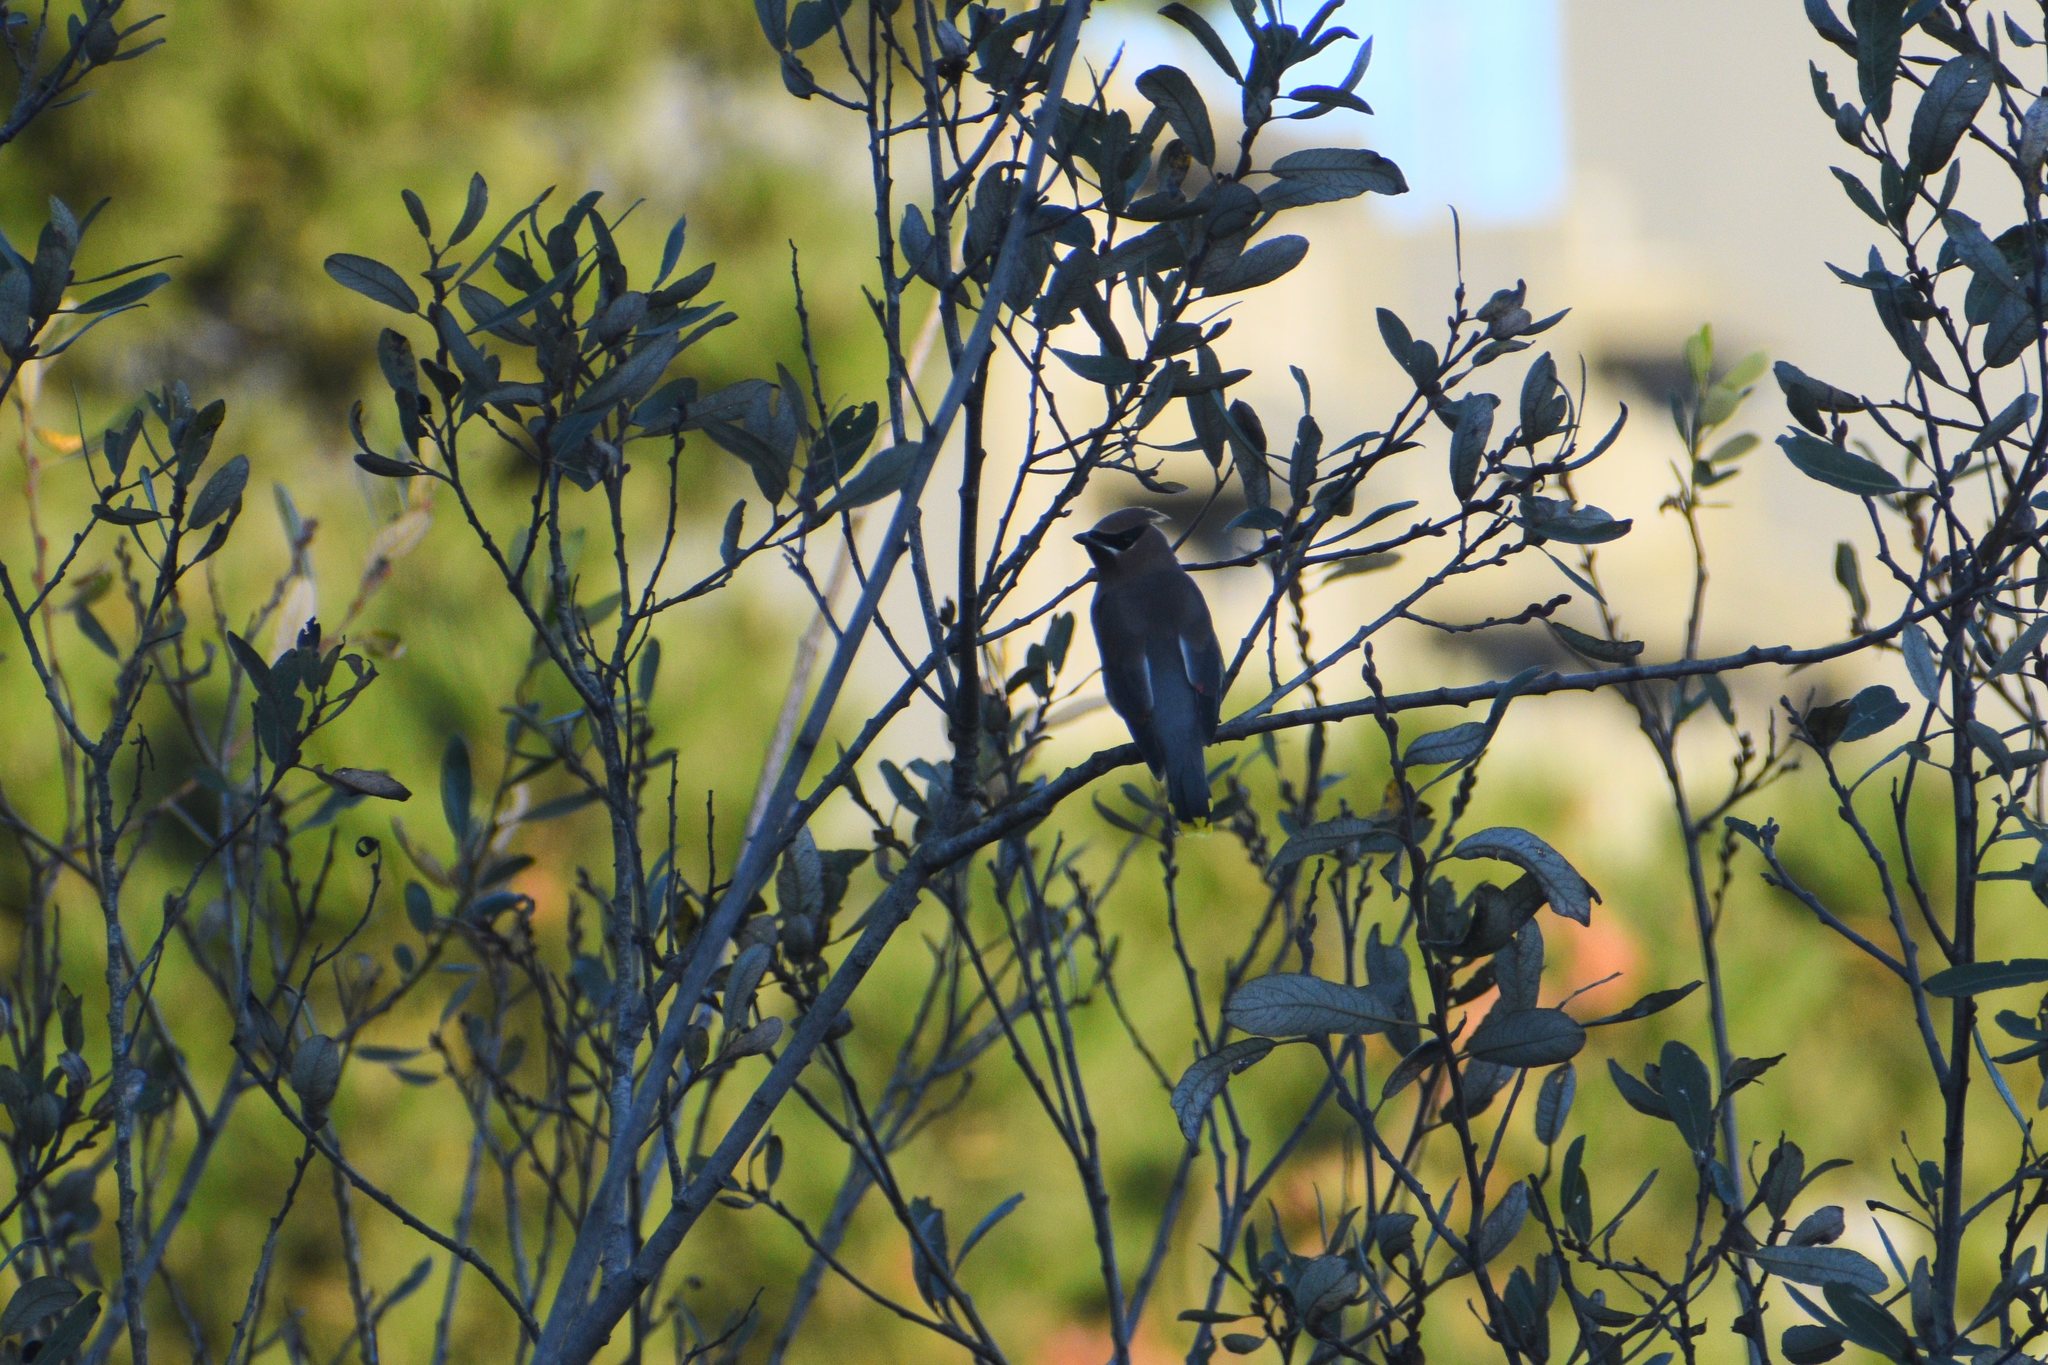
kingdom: Animalia
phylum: Chordata
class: Aves
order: Passeriformes
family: Bombycillidae
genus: Bombycilla
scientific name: Bombycilla cedrorum
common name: Cedar waxwing
